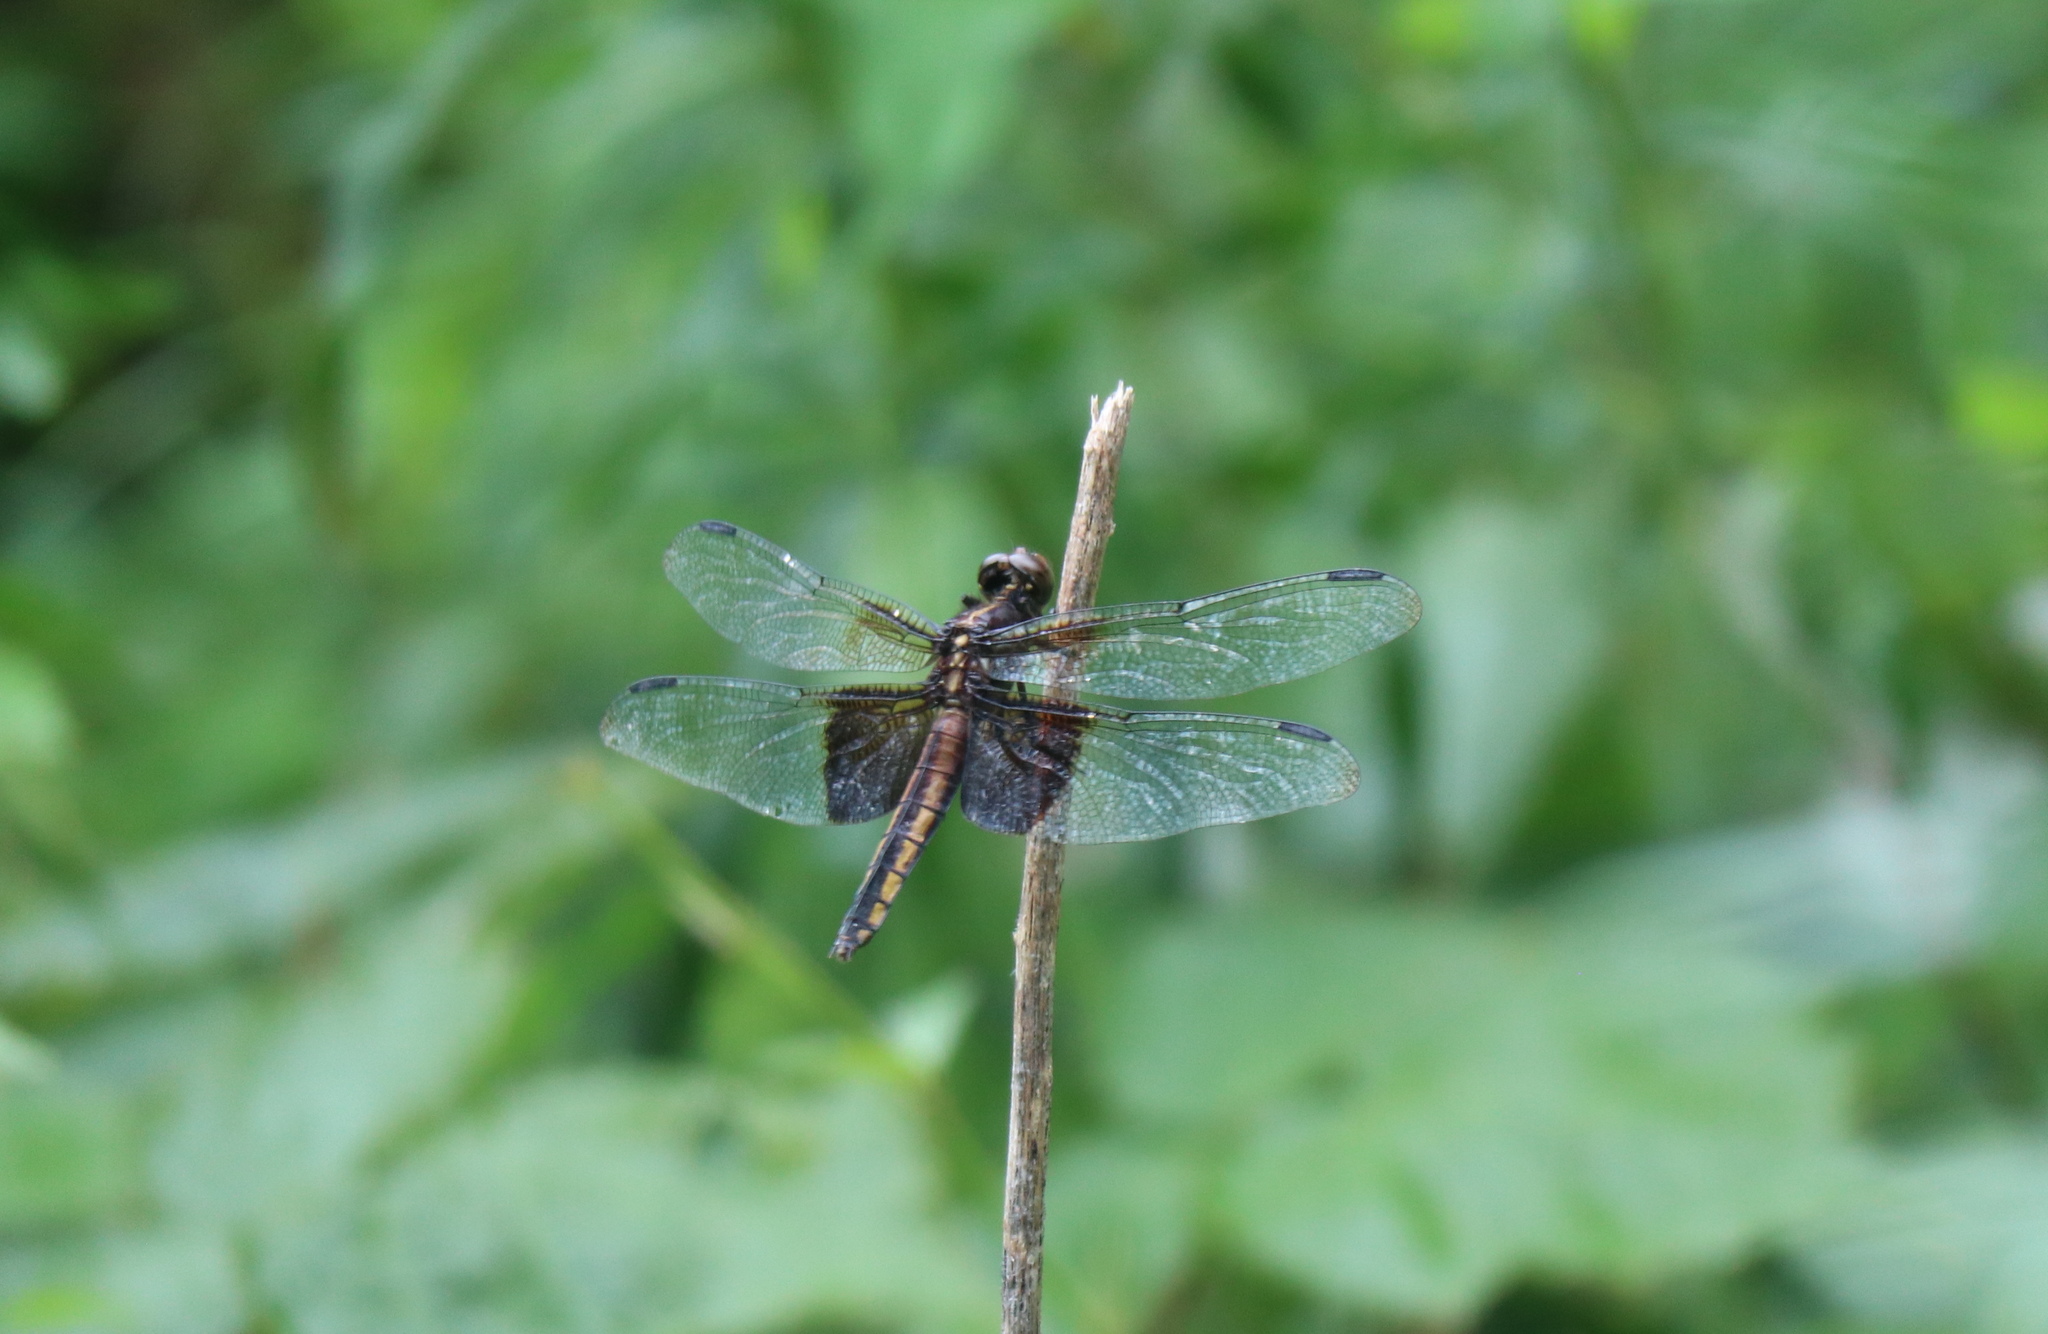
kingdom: Animalia
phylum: Arthropoda
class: Insecta
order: Odonata
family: Libellulidae
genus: Libellula
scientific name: Libellula luctuosa
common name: Widow skimmer
